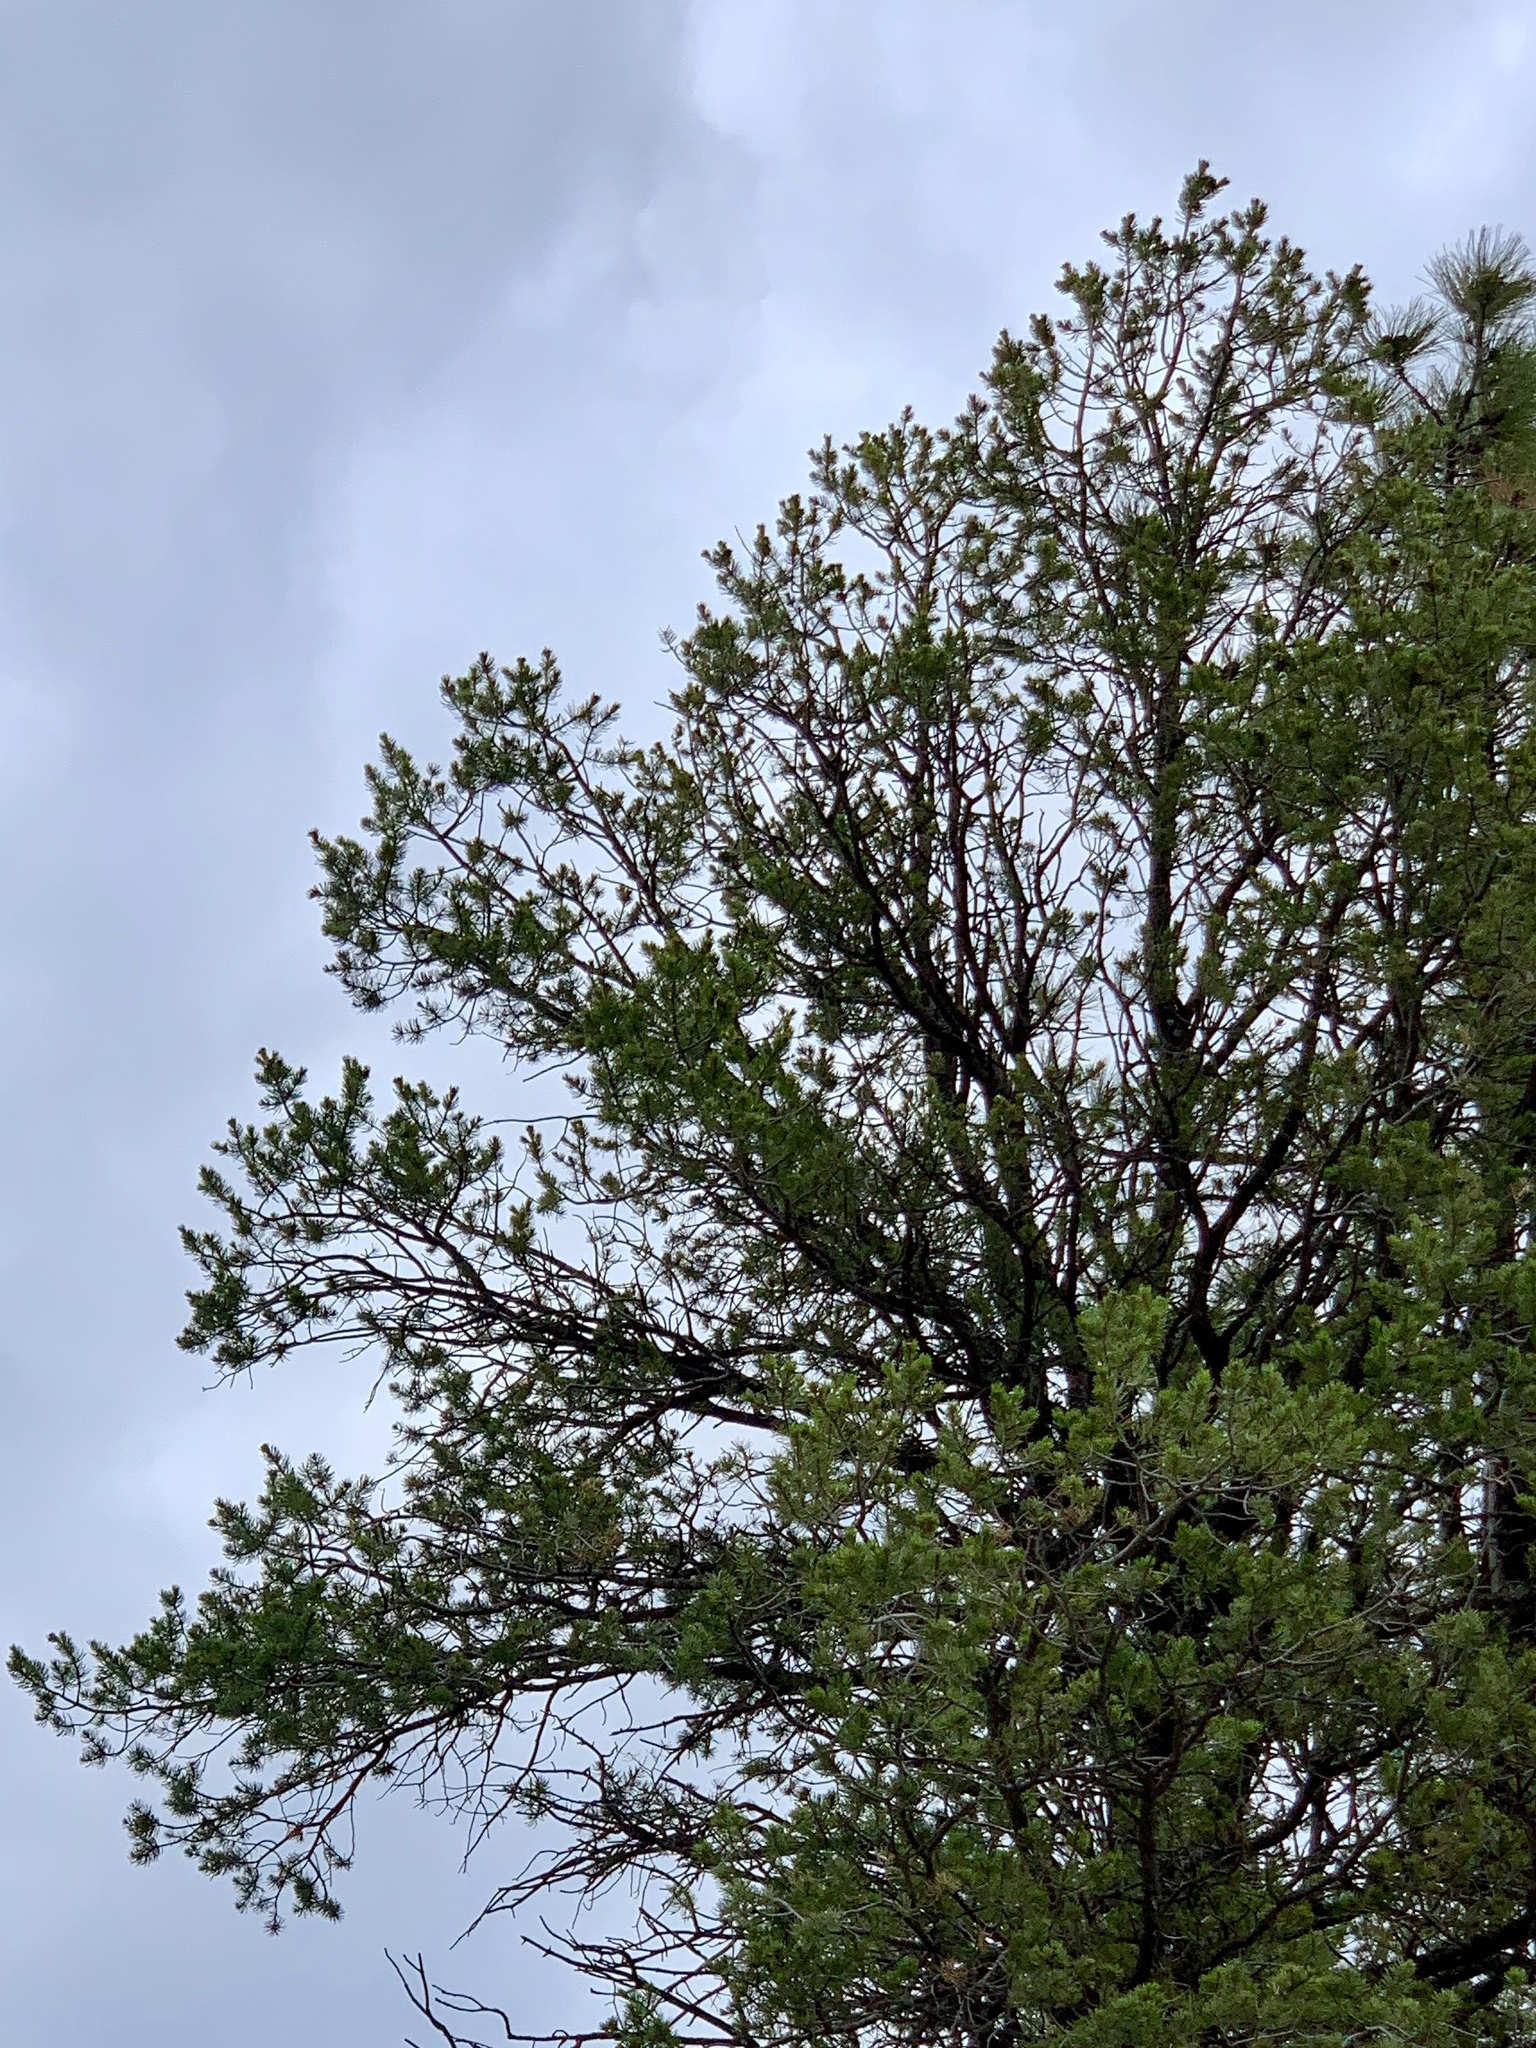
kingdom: Plantae
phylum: Tracheophyta
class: Pinopsida
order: Pinales
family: Pinaceae
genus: Pinus
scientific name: Pinus edulis
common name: Colorado pinyon
